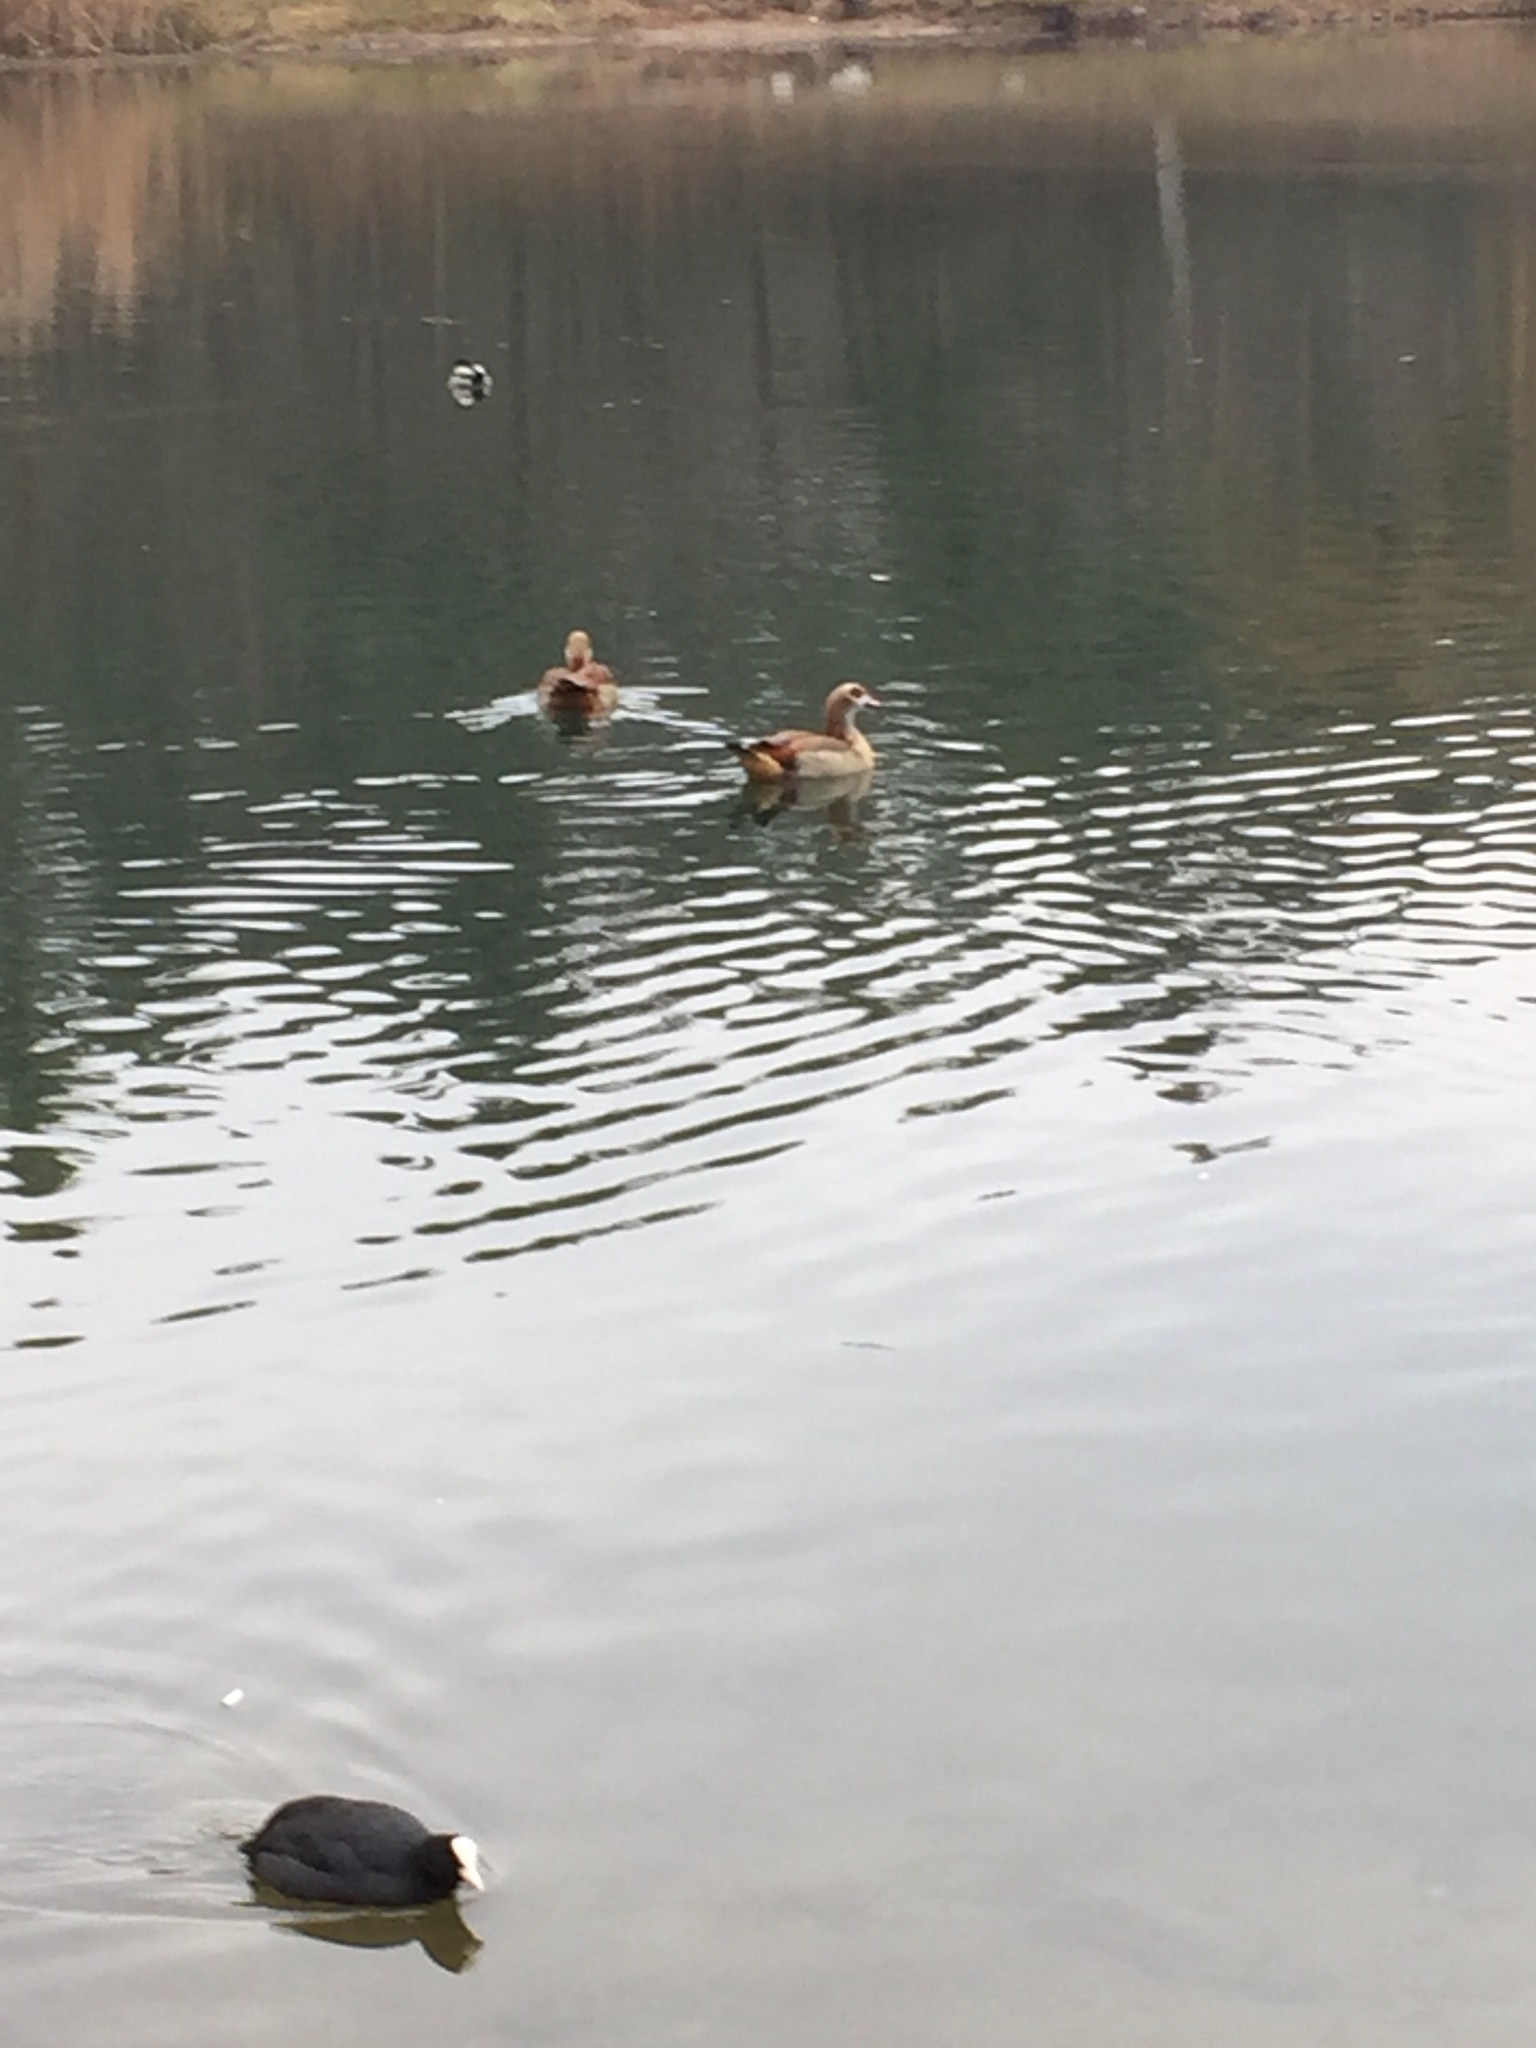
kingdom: Animalia
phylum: Chordata
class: Aves
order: Anseriformes
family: Anatidae
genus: Alopochen
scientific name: Alopochen aegyptiaca
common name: Egyptian goose
